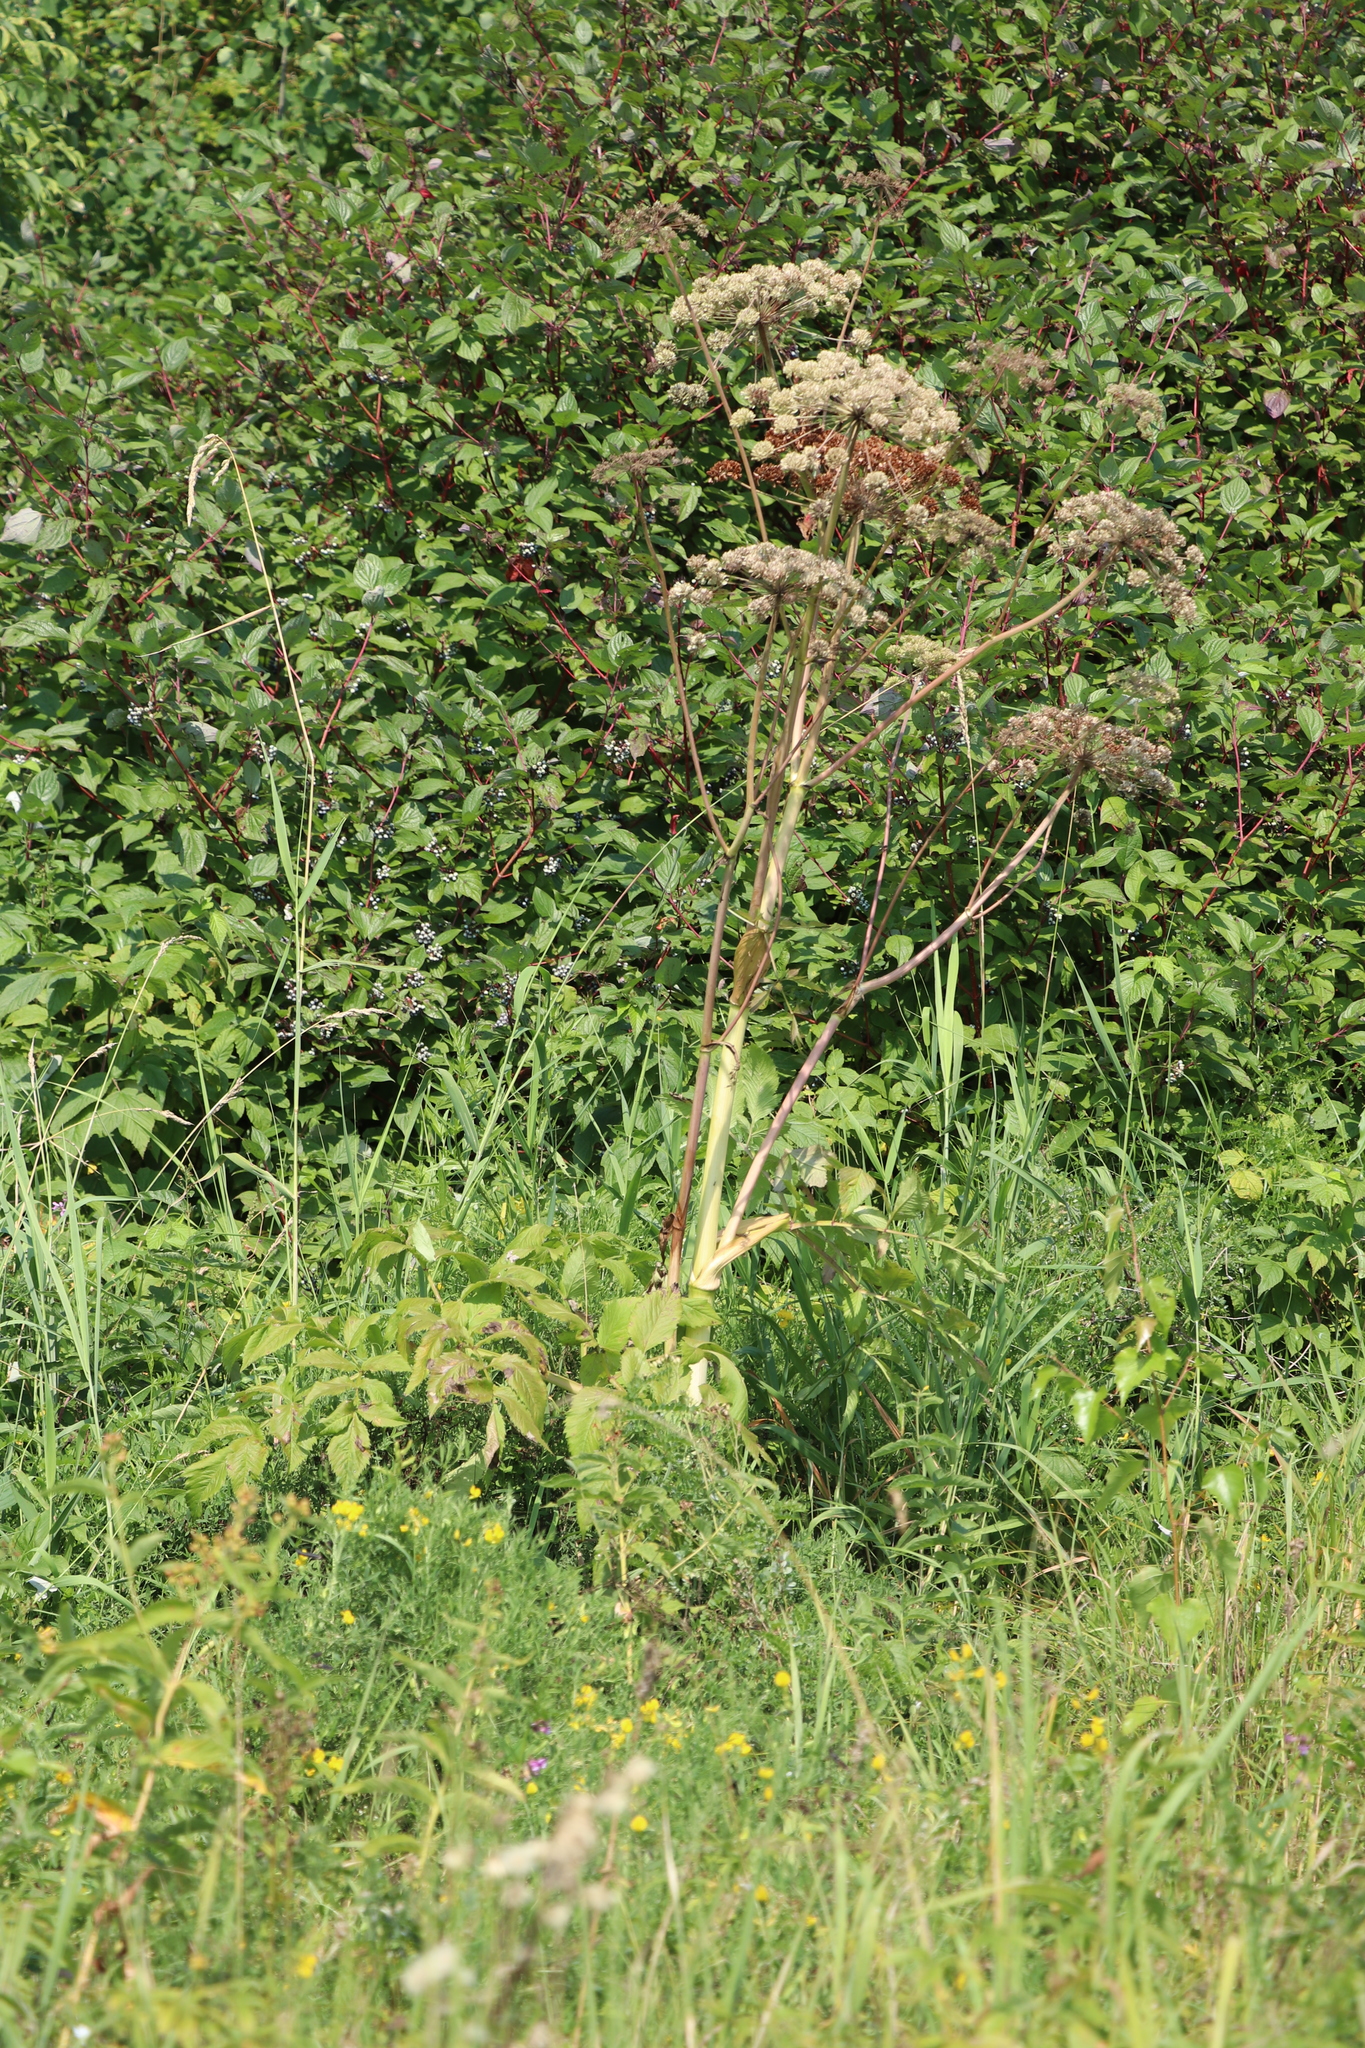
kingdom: Plantae
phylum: Tracheophyta
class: Magnoliopsida
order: Apiales
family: Apiaceae
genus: Angelica
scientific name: Angelica sylvestris
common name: Wild angelica
